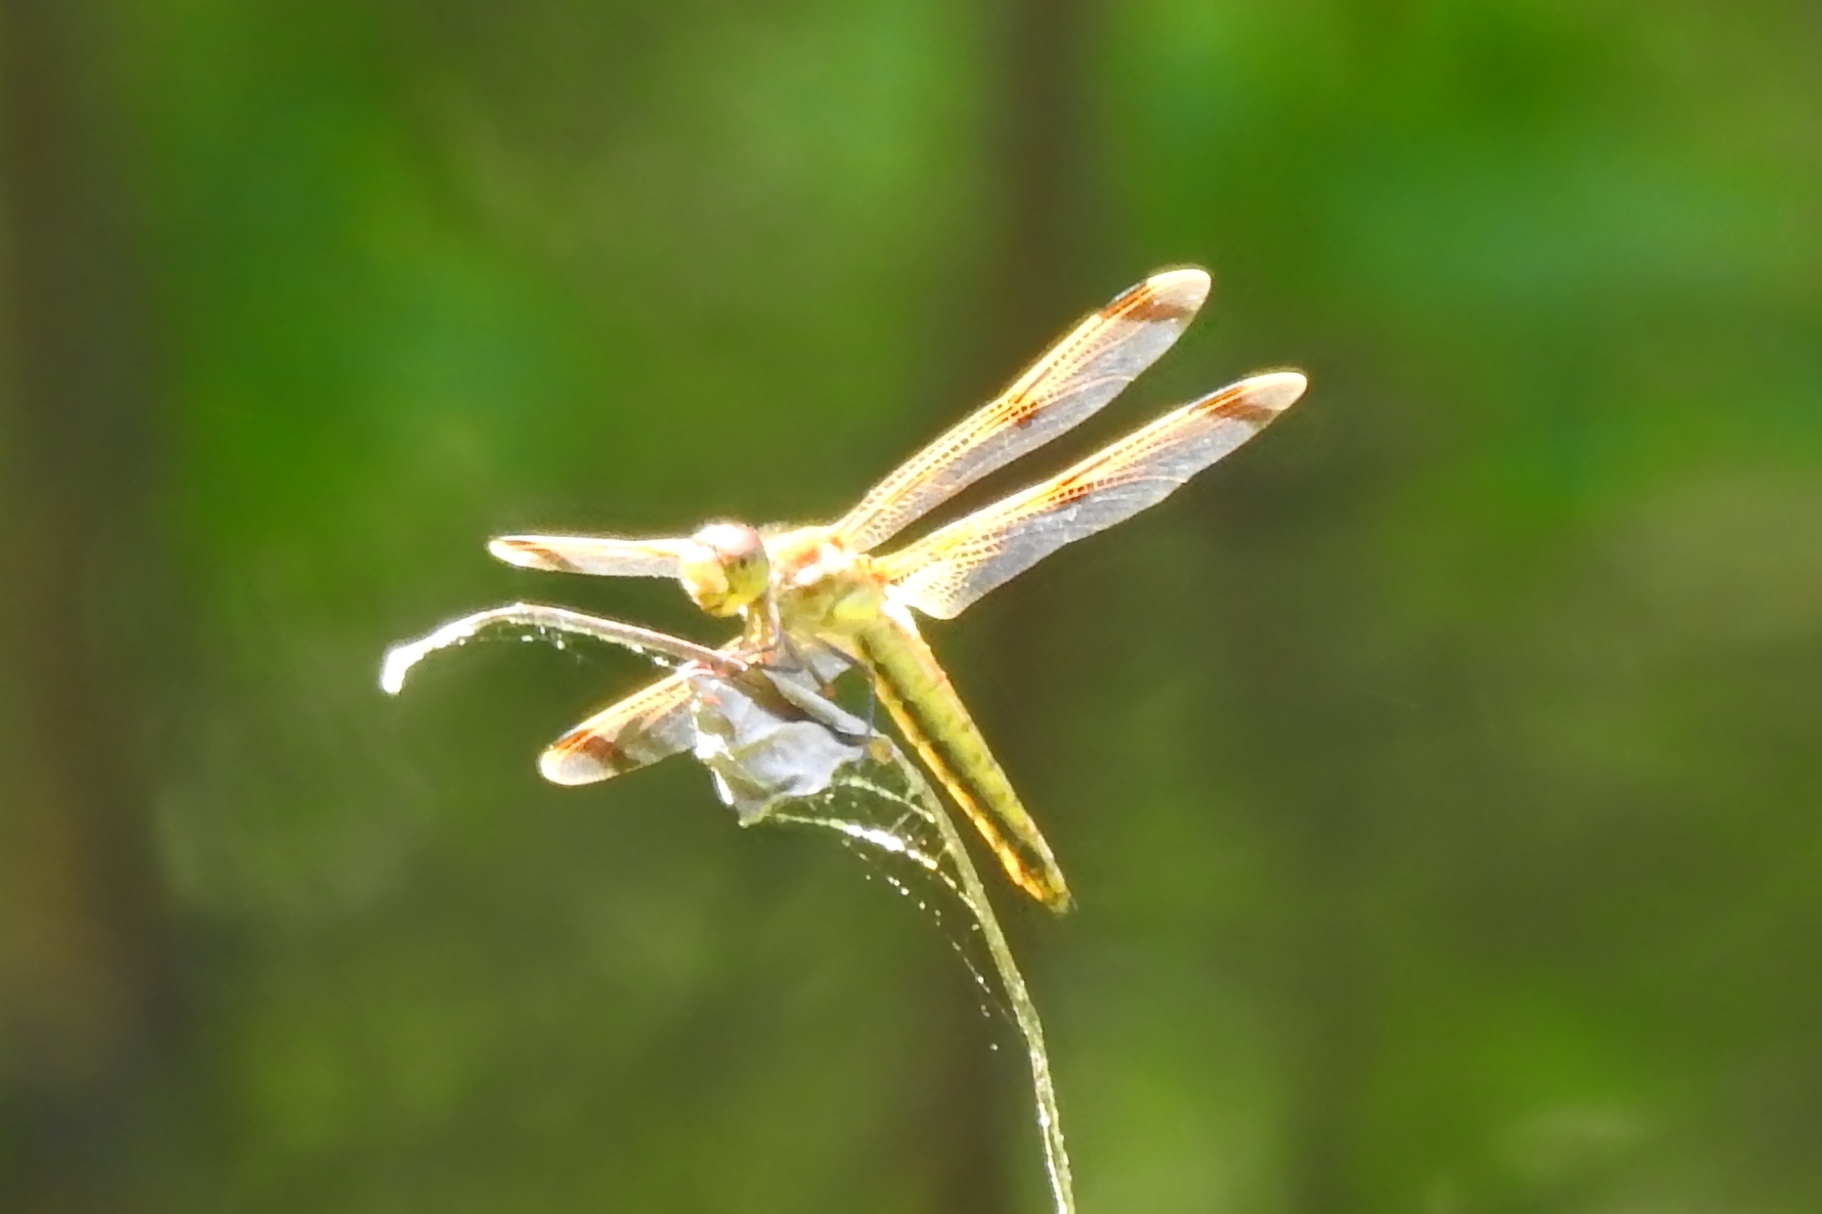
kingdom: Animalia
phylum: Arthropoda
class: Insecta
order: Odonata
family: Libellulidae
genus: Libellula
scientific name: Libellula semifasciata
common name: Painted skimmer
